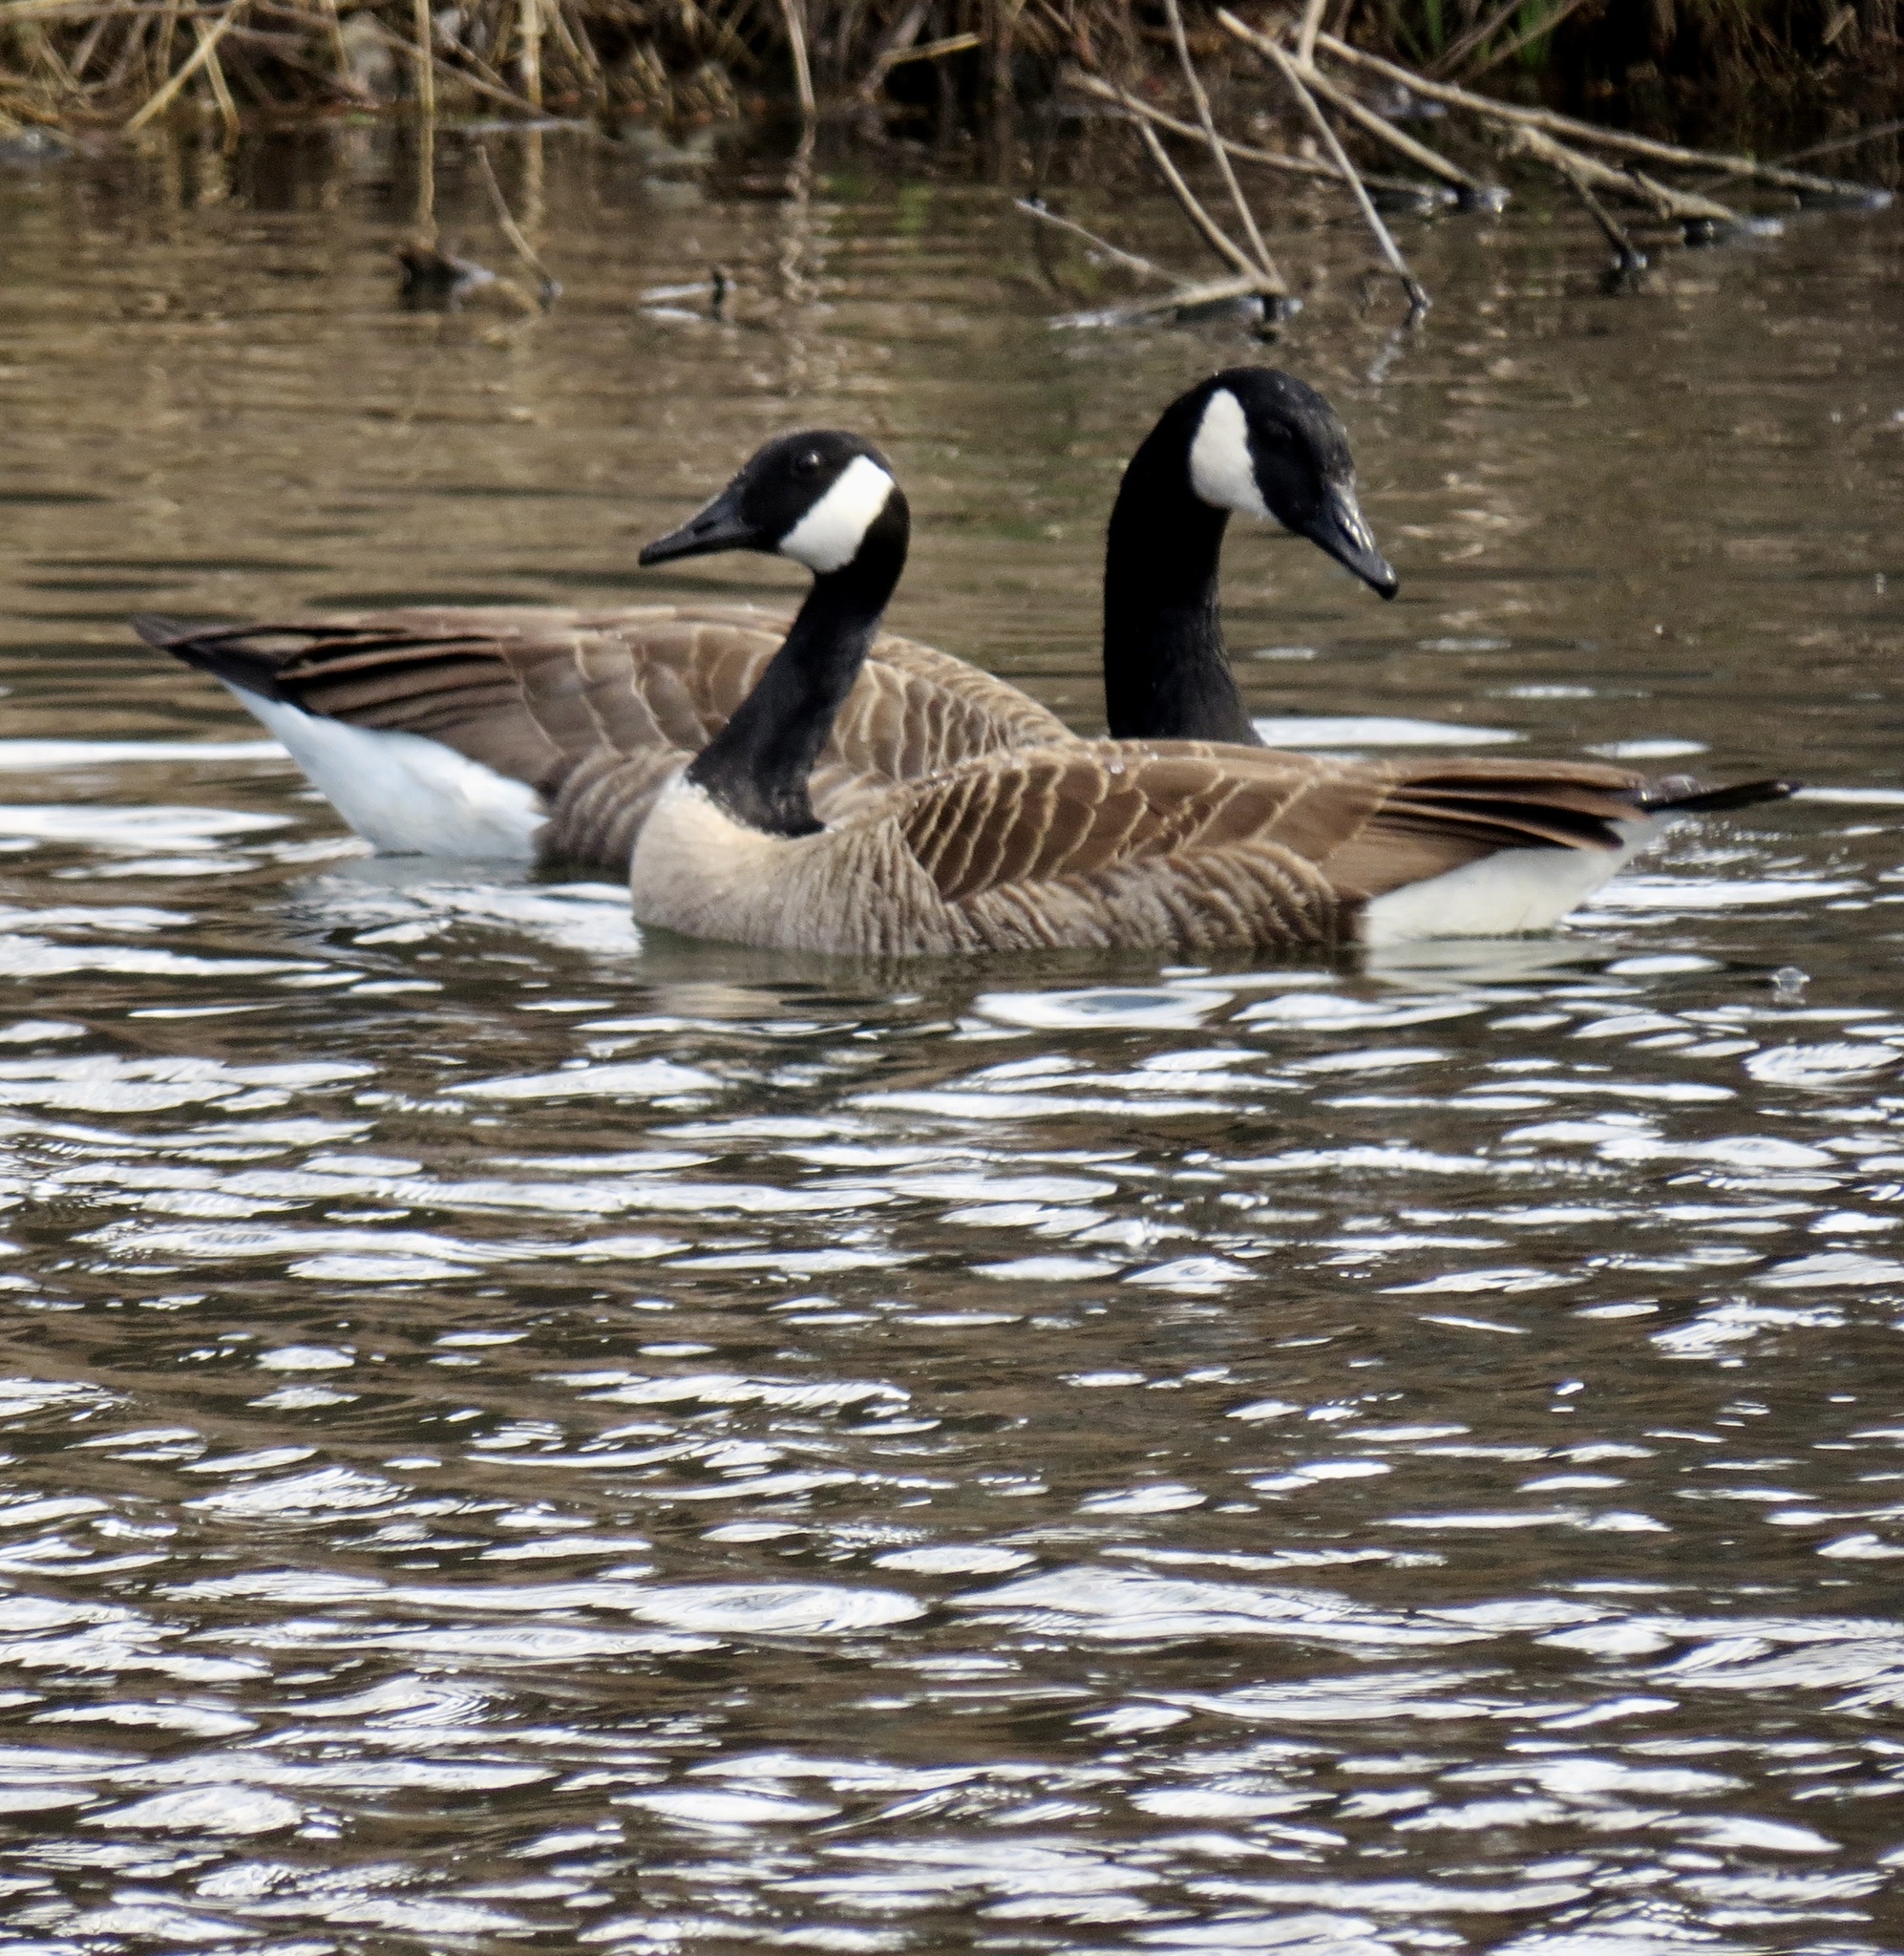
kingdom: Animalia
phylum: Chordata
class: Aves
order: Anseriformes
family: Anatidae
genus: Branta
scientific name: Branta canadensis
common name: Canada goose
